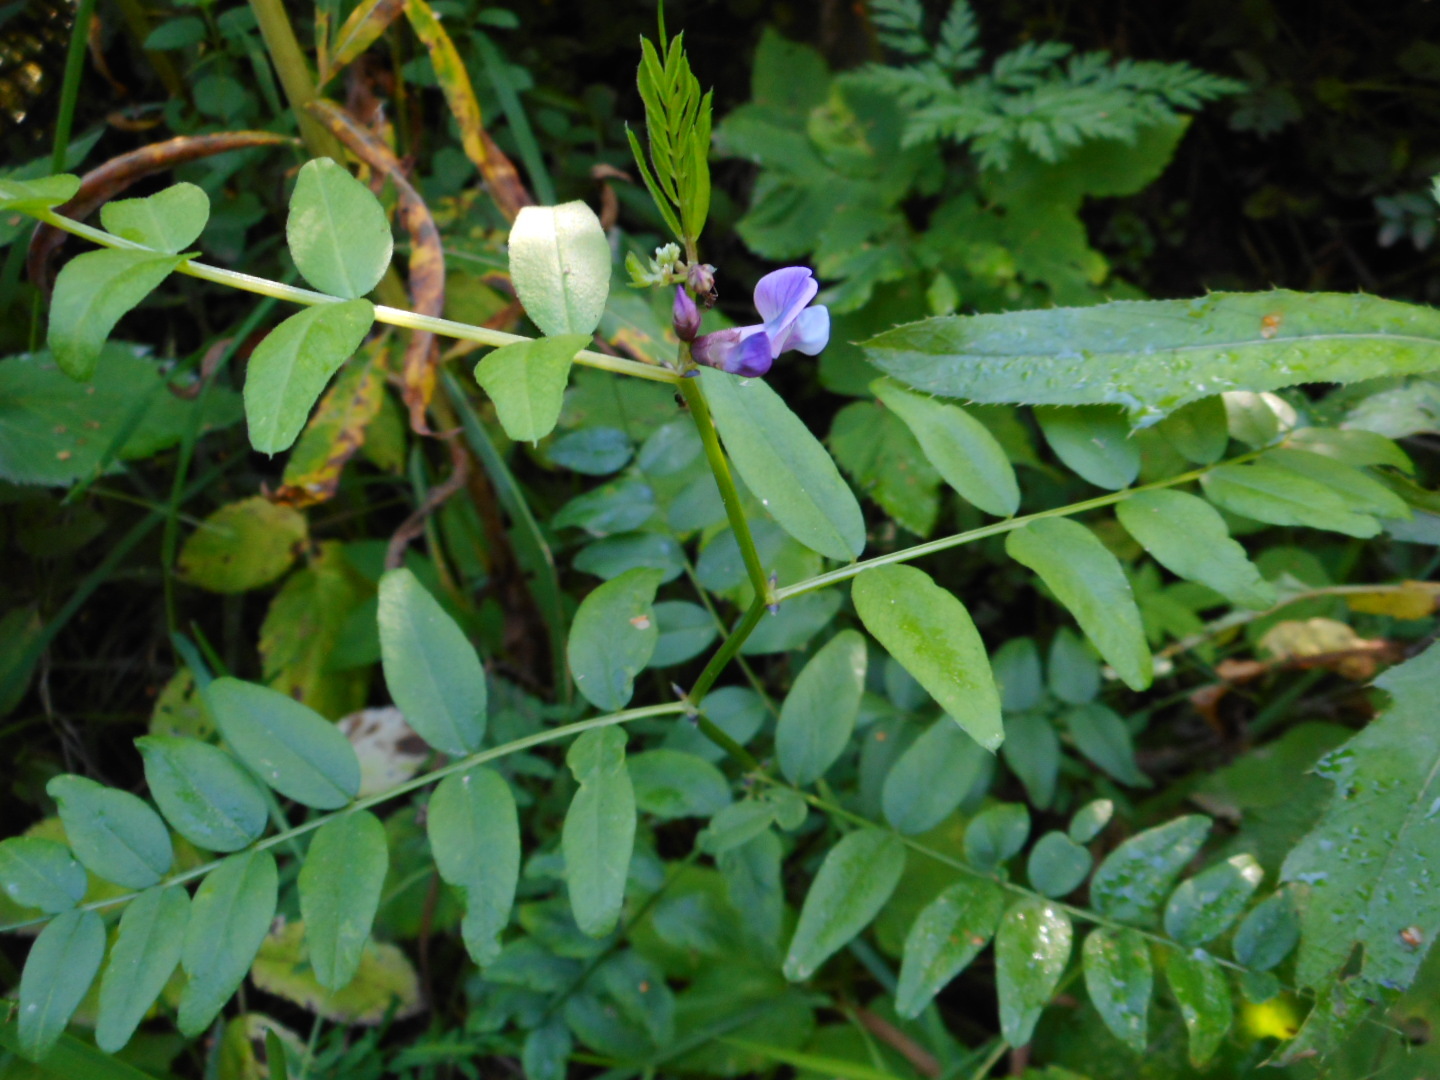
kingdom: Plantae
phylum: Tracheophyta
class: Magnoliopsida
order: Fabales
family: Fabaceae
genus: Vicia
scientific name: Vicia sepium
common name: Bush vetch
